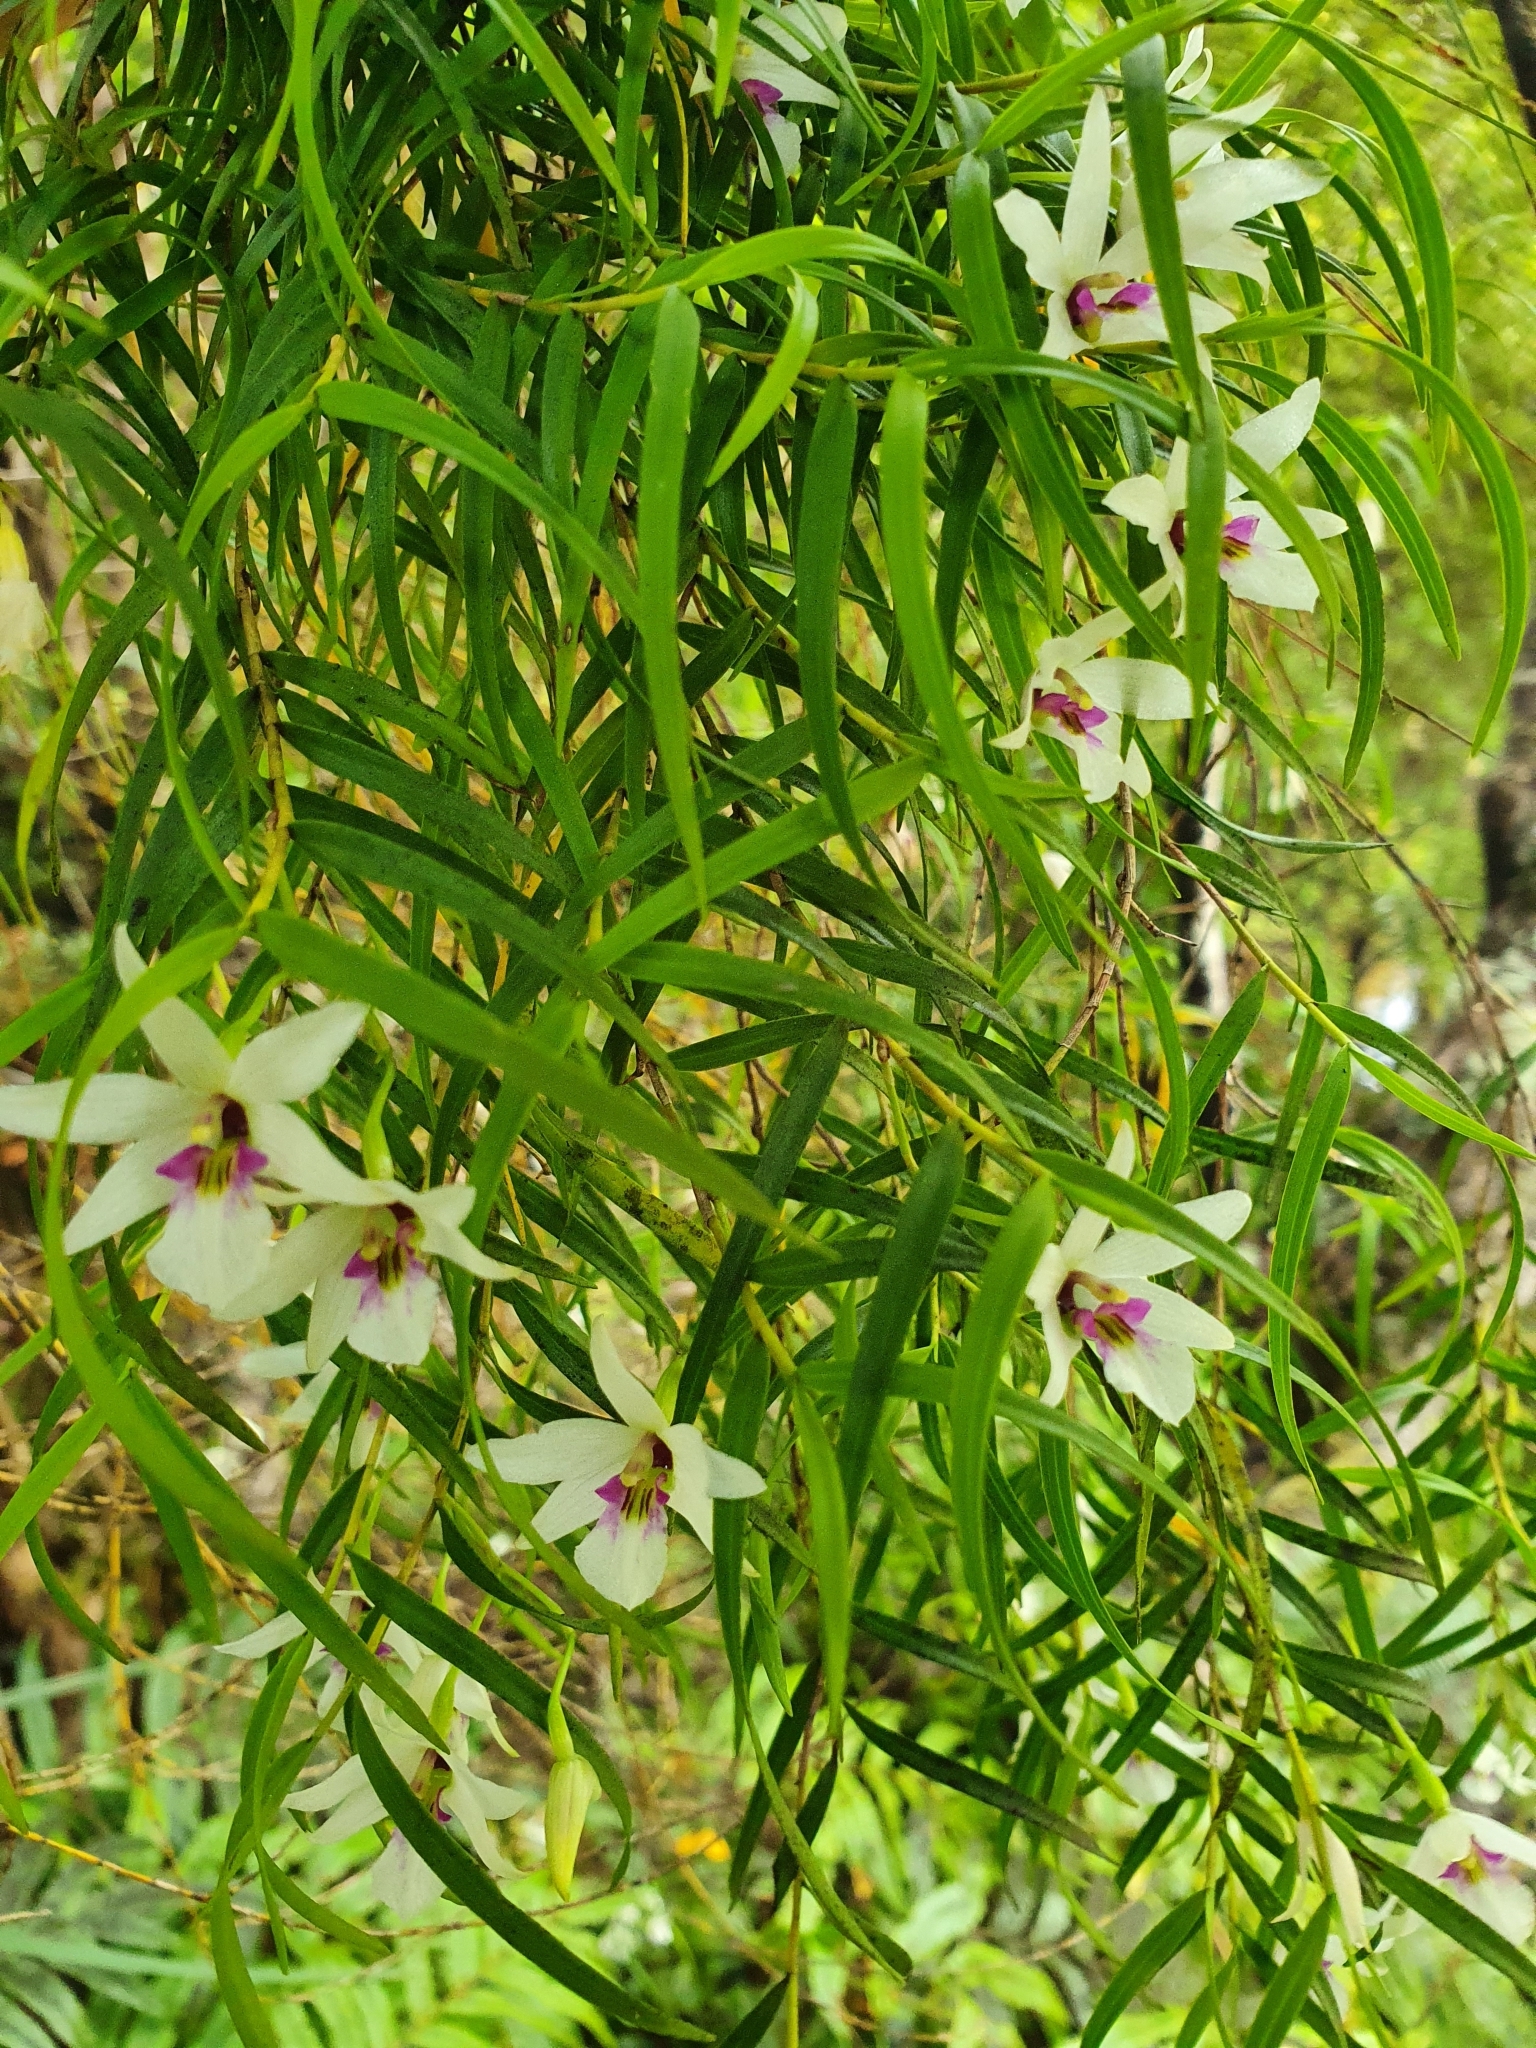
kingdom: Plantae
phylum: Tracheophyta
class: Liliopsida
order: Asparagales
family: Orchidaceae
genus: Dendrobium
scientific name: Dendrobium cunninghamii
